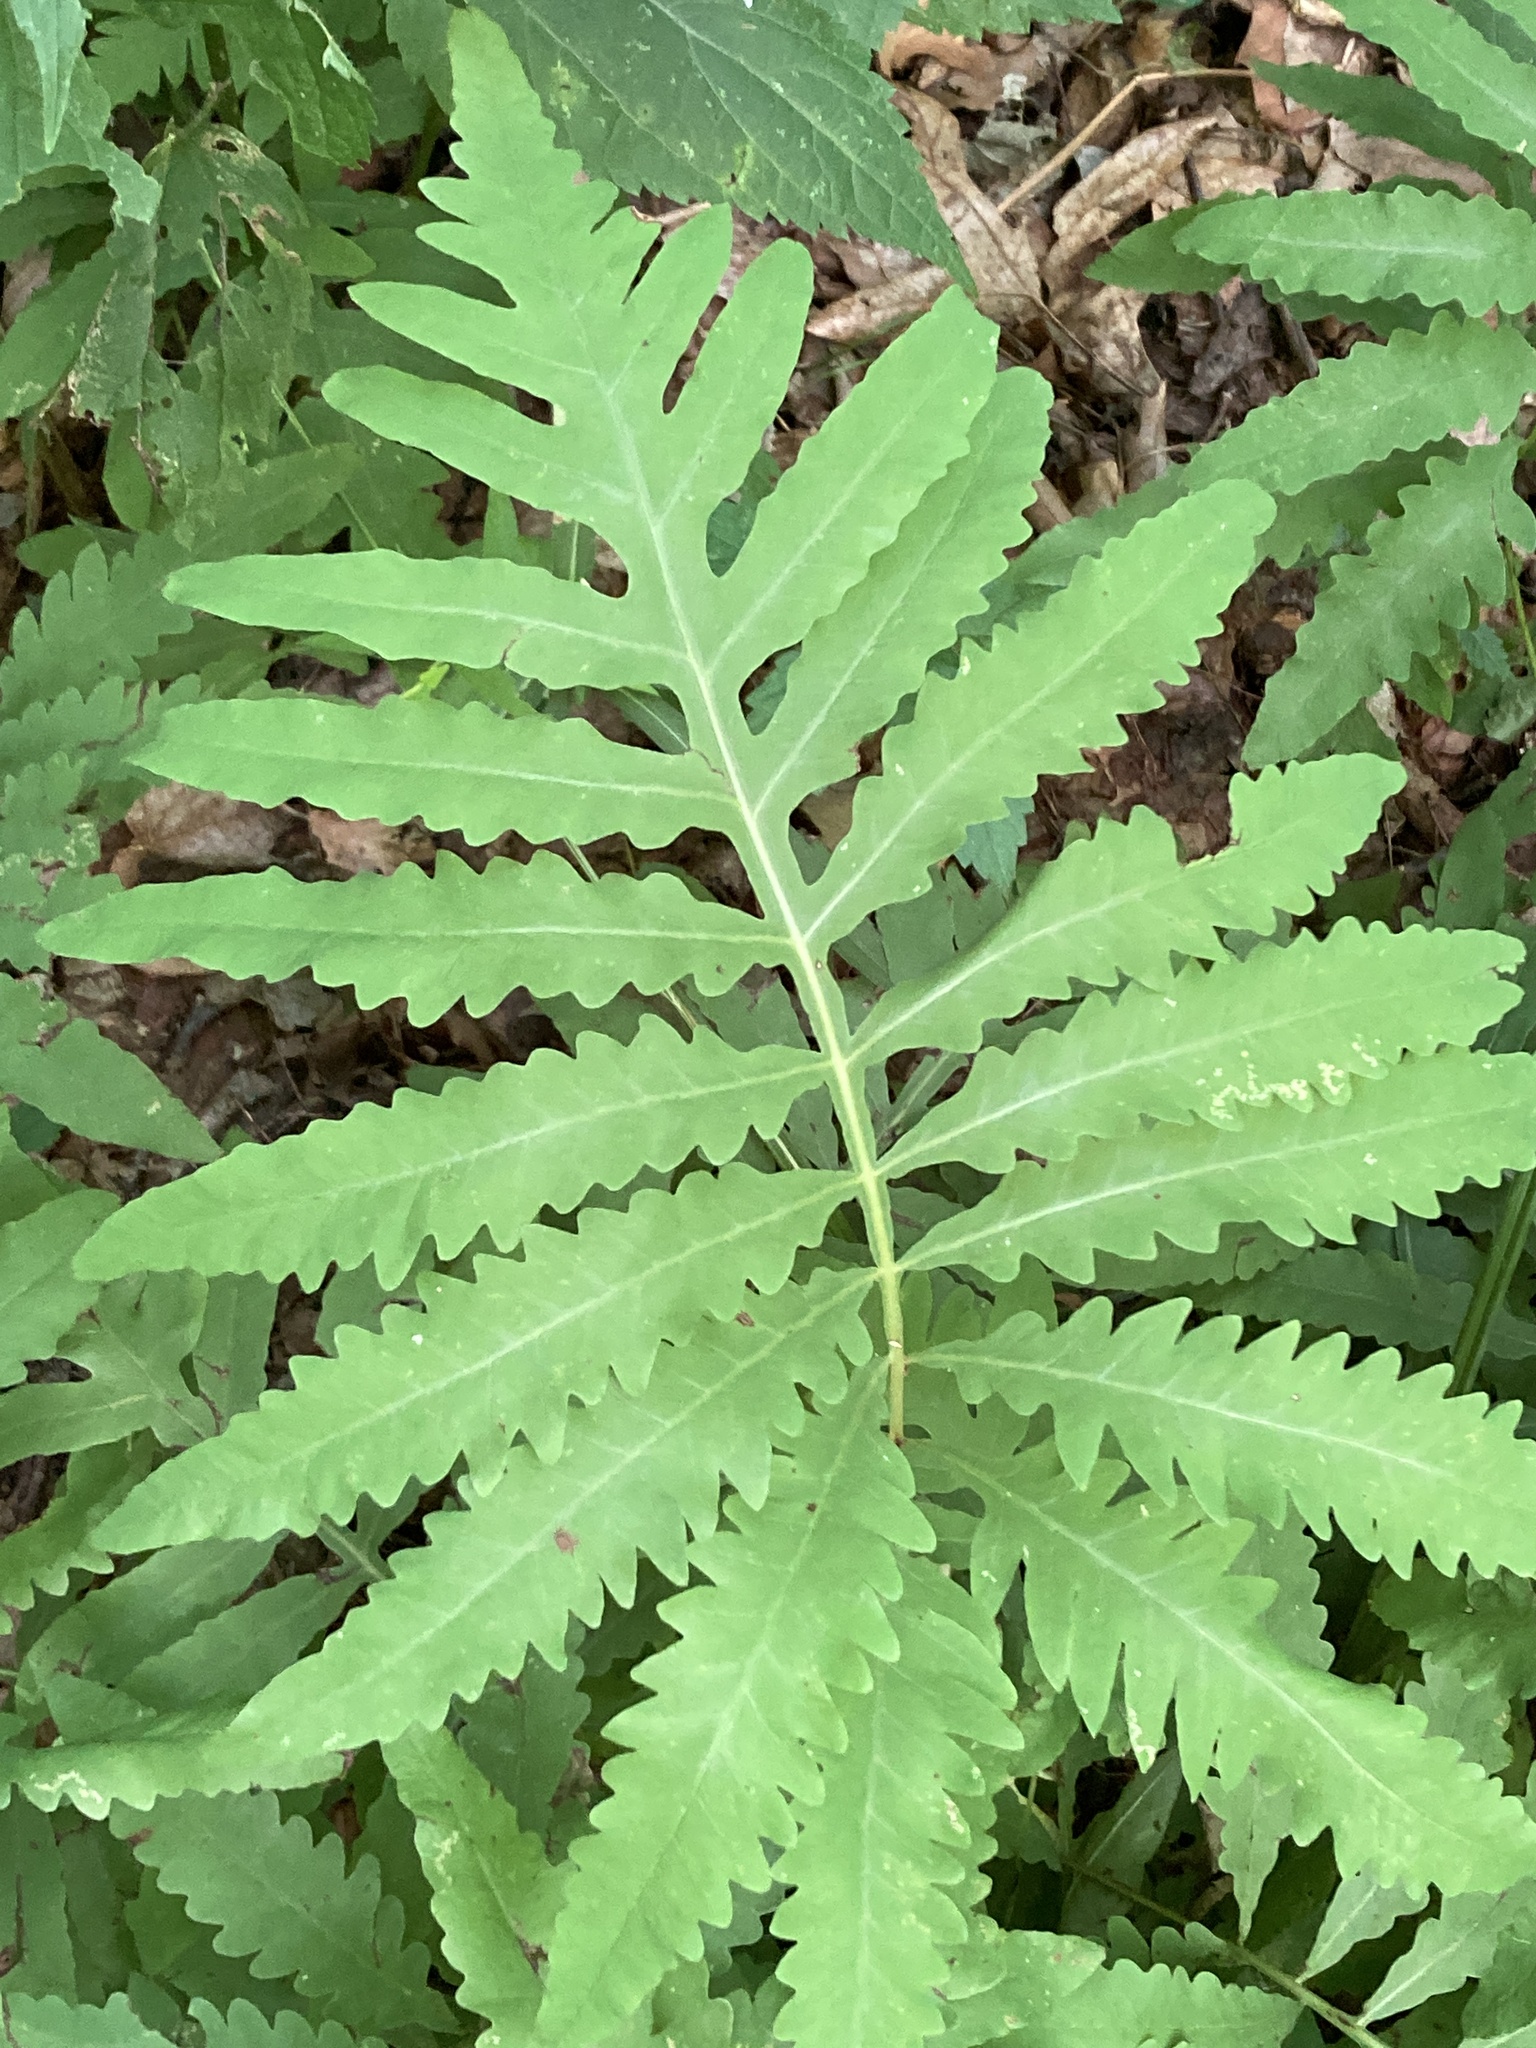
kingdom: Plantae
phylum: Tracheophyta
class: Polypodiopsida
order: Polypodiales
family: Onocleaceae
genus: Onoclea
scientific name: Onoclea sensibilis
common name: Sensitive fern
